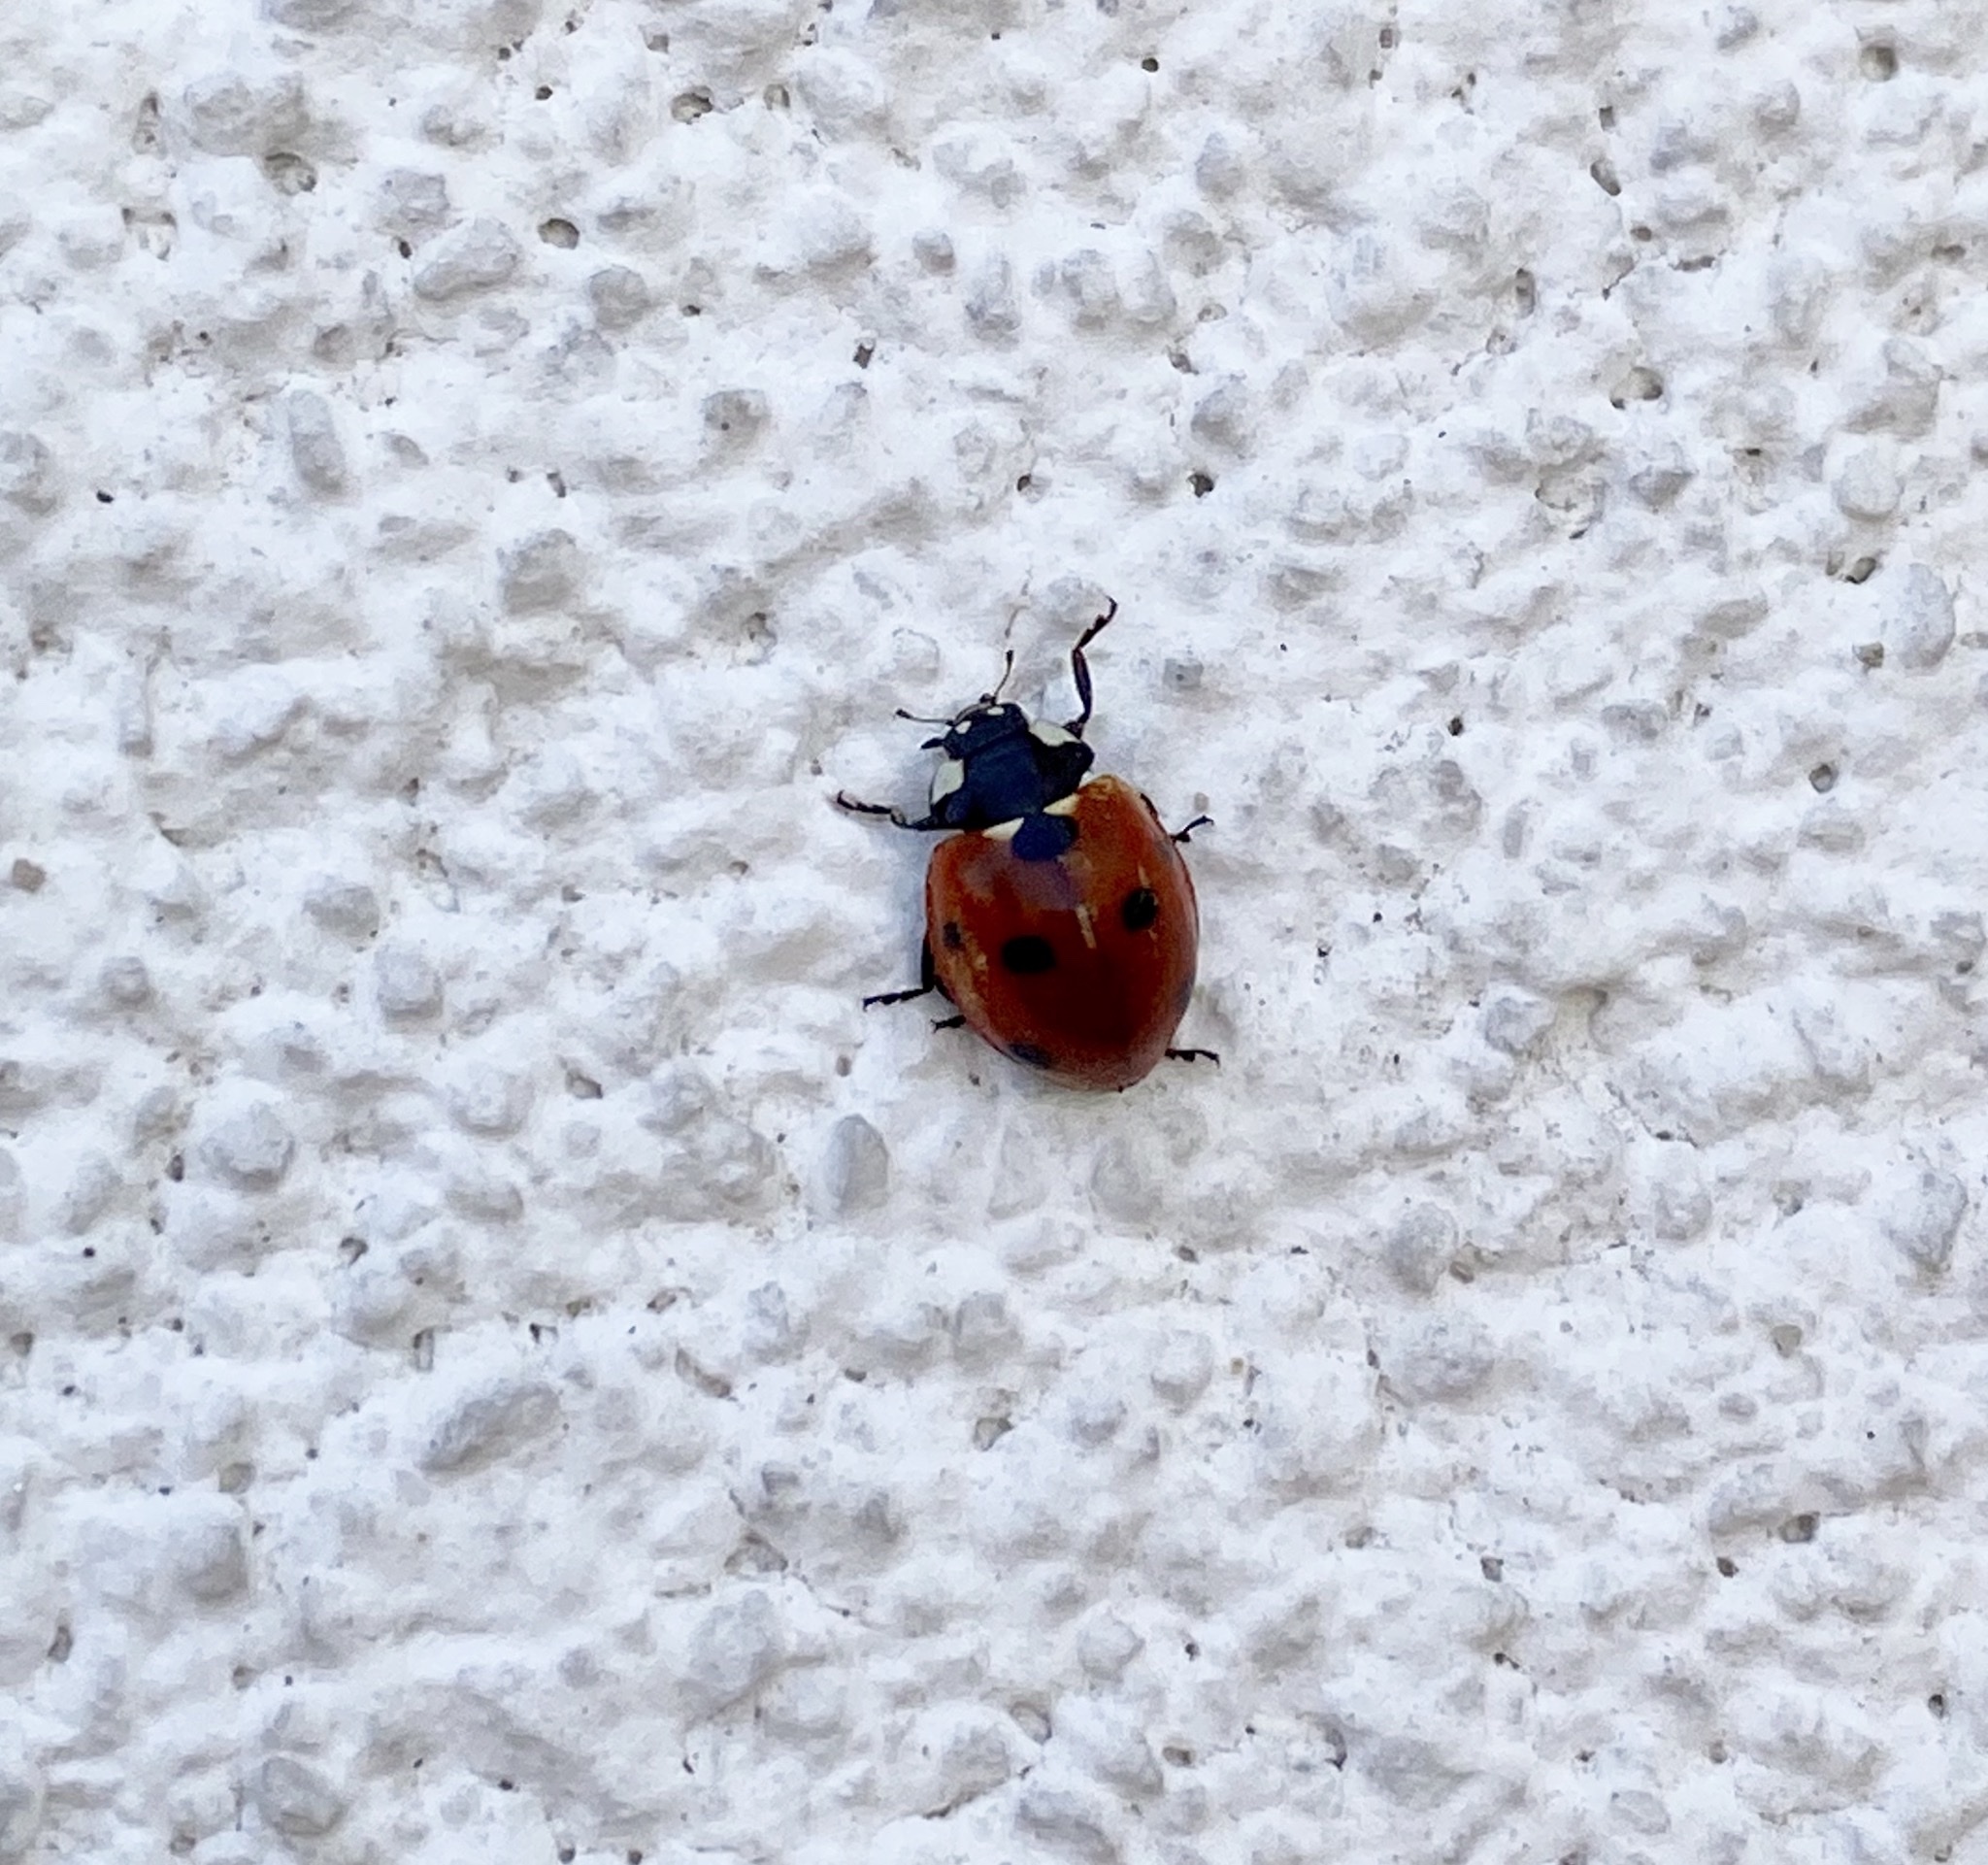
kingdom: Animalia
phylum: Arthropoda
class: Insecta
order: Coleoptera
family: Coccinellidae
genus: Coccinella
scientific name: Coccinella septempunctata
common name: Sevenspotted lady beetle
